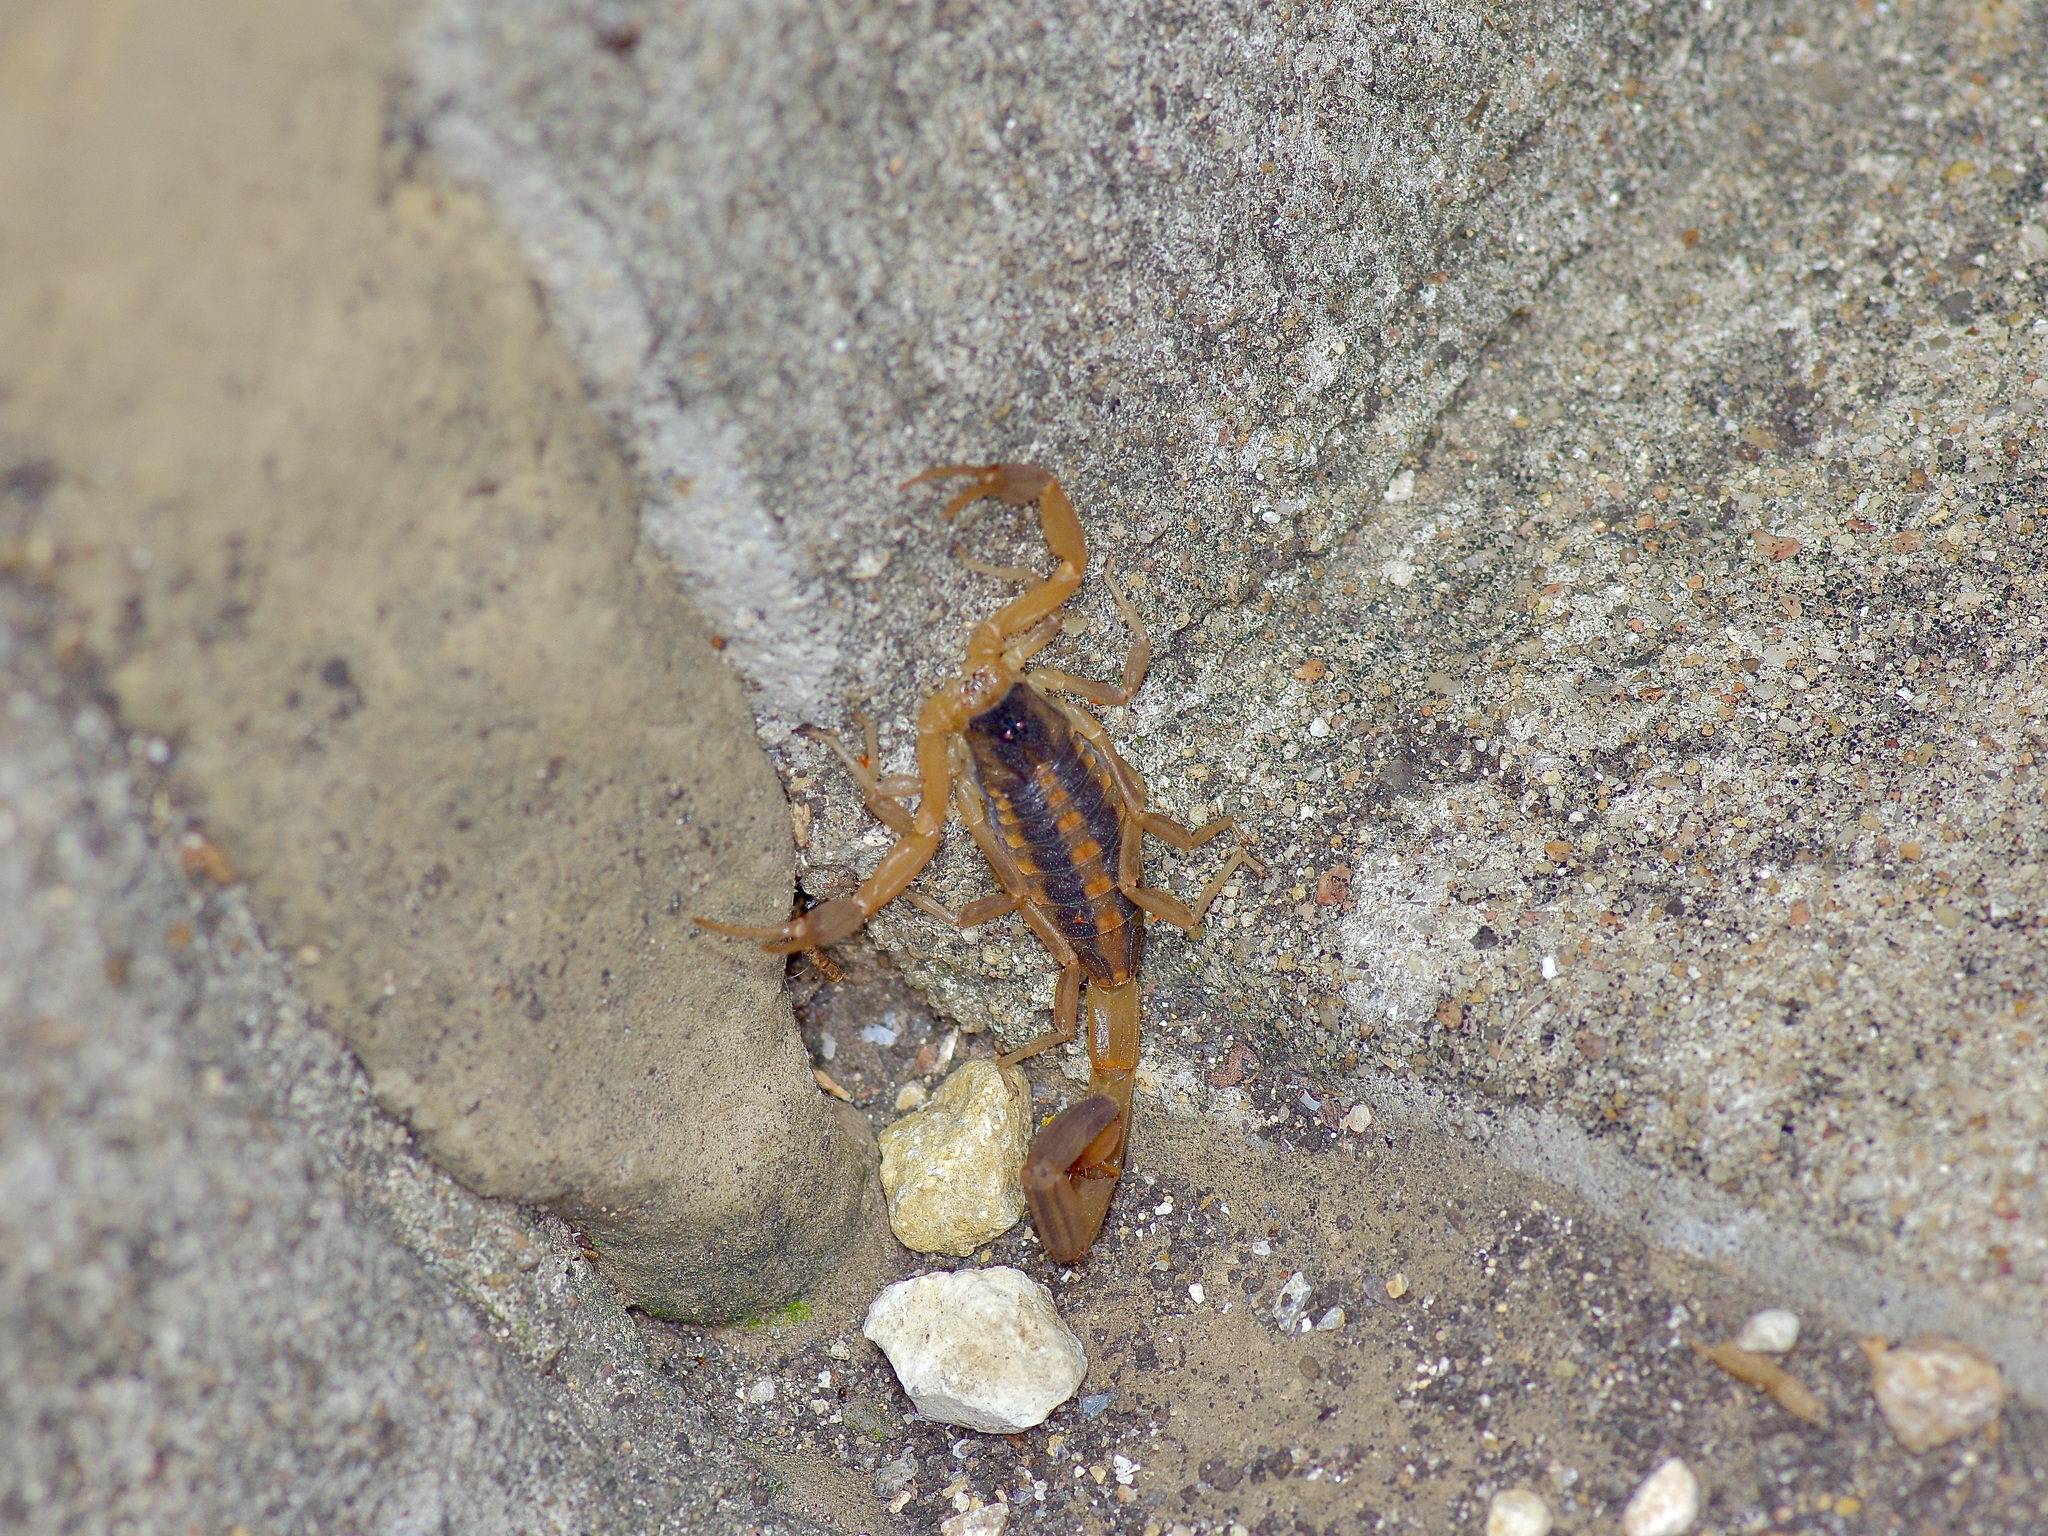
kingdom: Animalia
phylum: Arthropoda
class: Arachnida
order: Scorpiones
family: Buthidae
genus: Centruroides
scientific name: Centruroides vittatus
